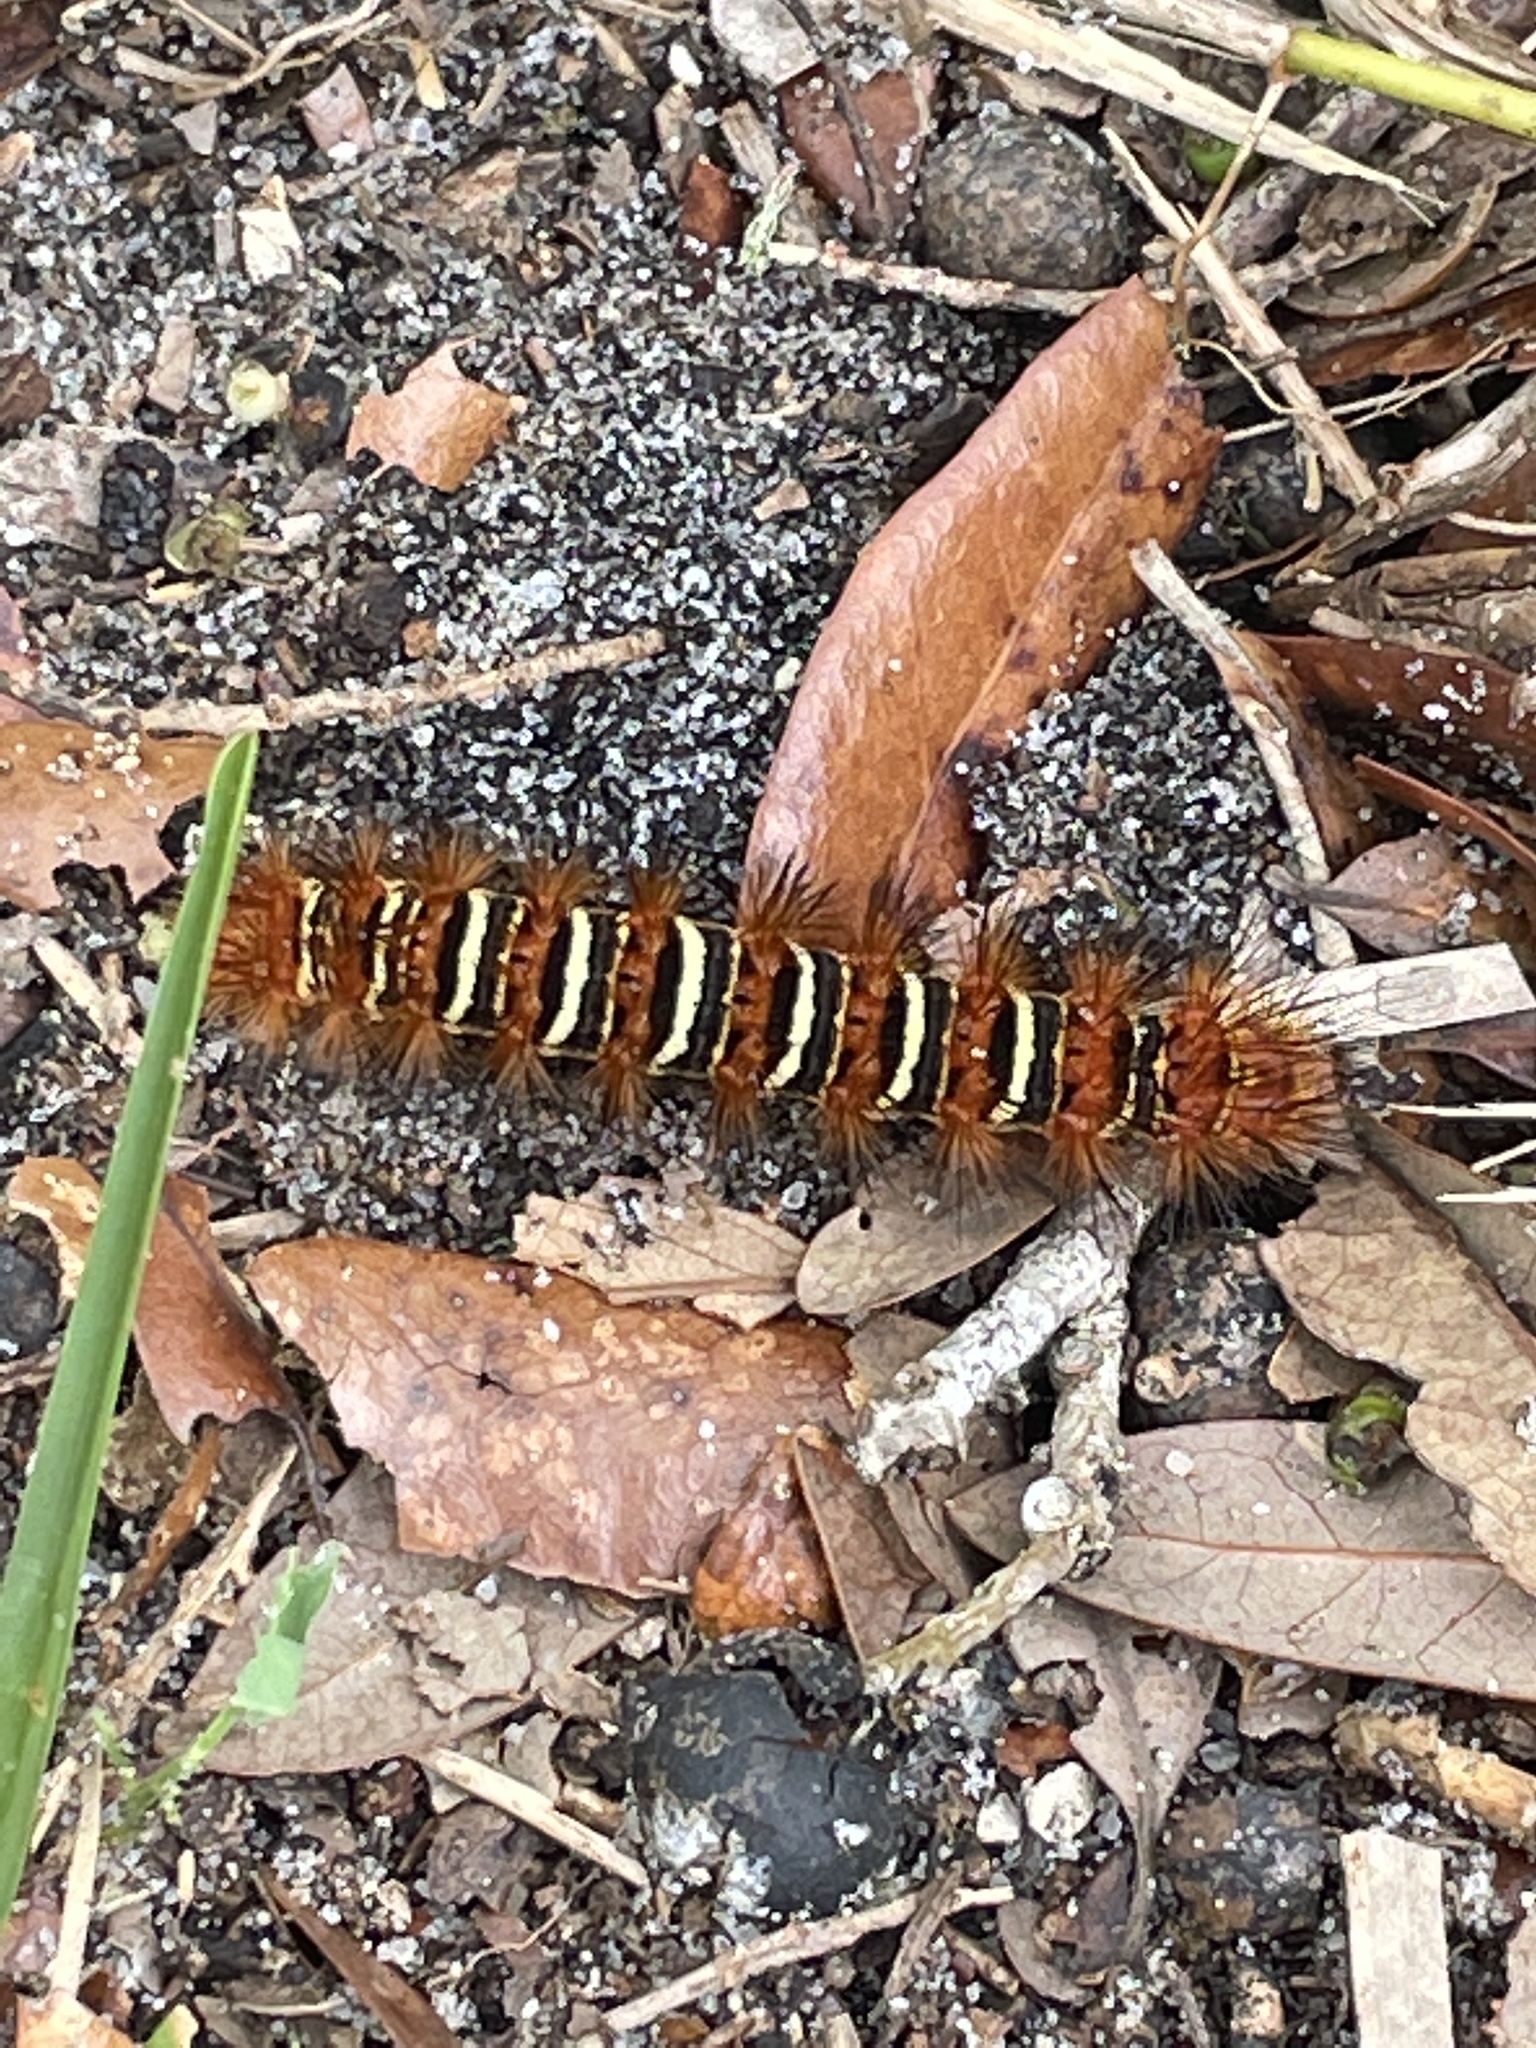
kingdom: Animalia
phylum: Arthropoda
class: Insecta
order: Lepidoptera
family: Erebidae
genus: Seirarctia
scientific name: Seirarctia echo
